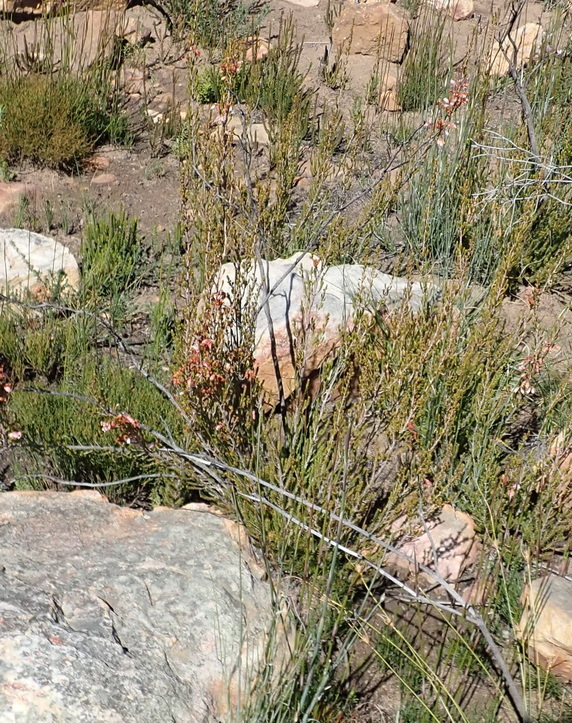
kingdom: Plantae
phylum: Tracheophyta
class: Magnoliopsida
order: Ericales
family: Ericaceae
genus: Erica
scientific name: Erica recta
